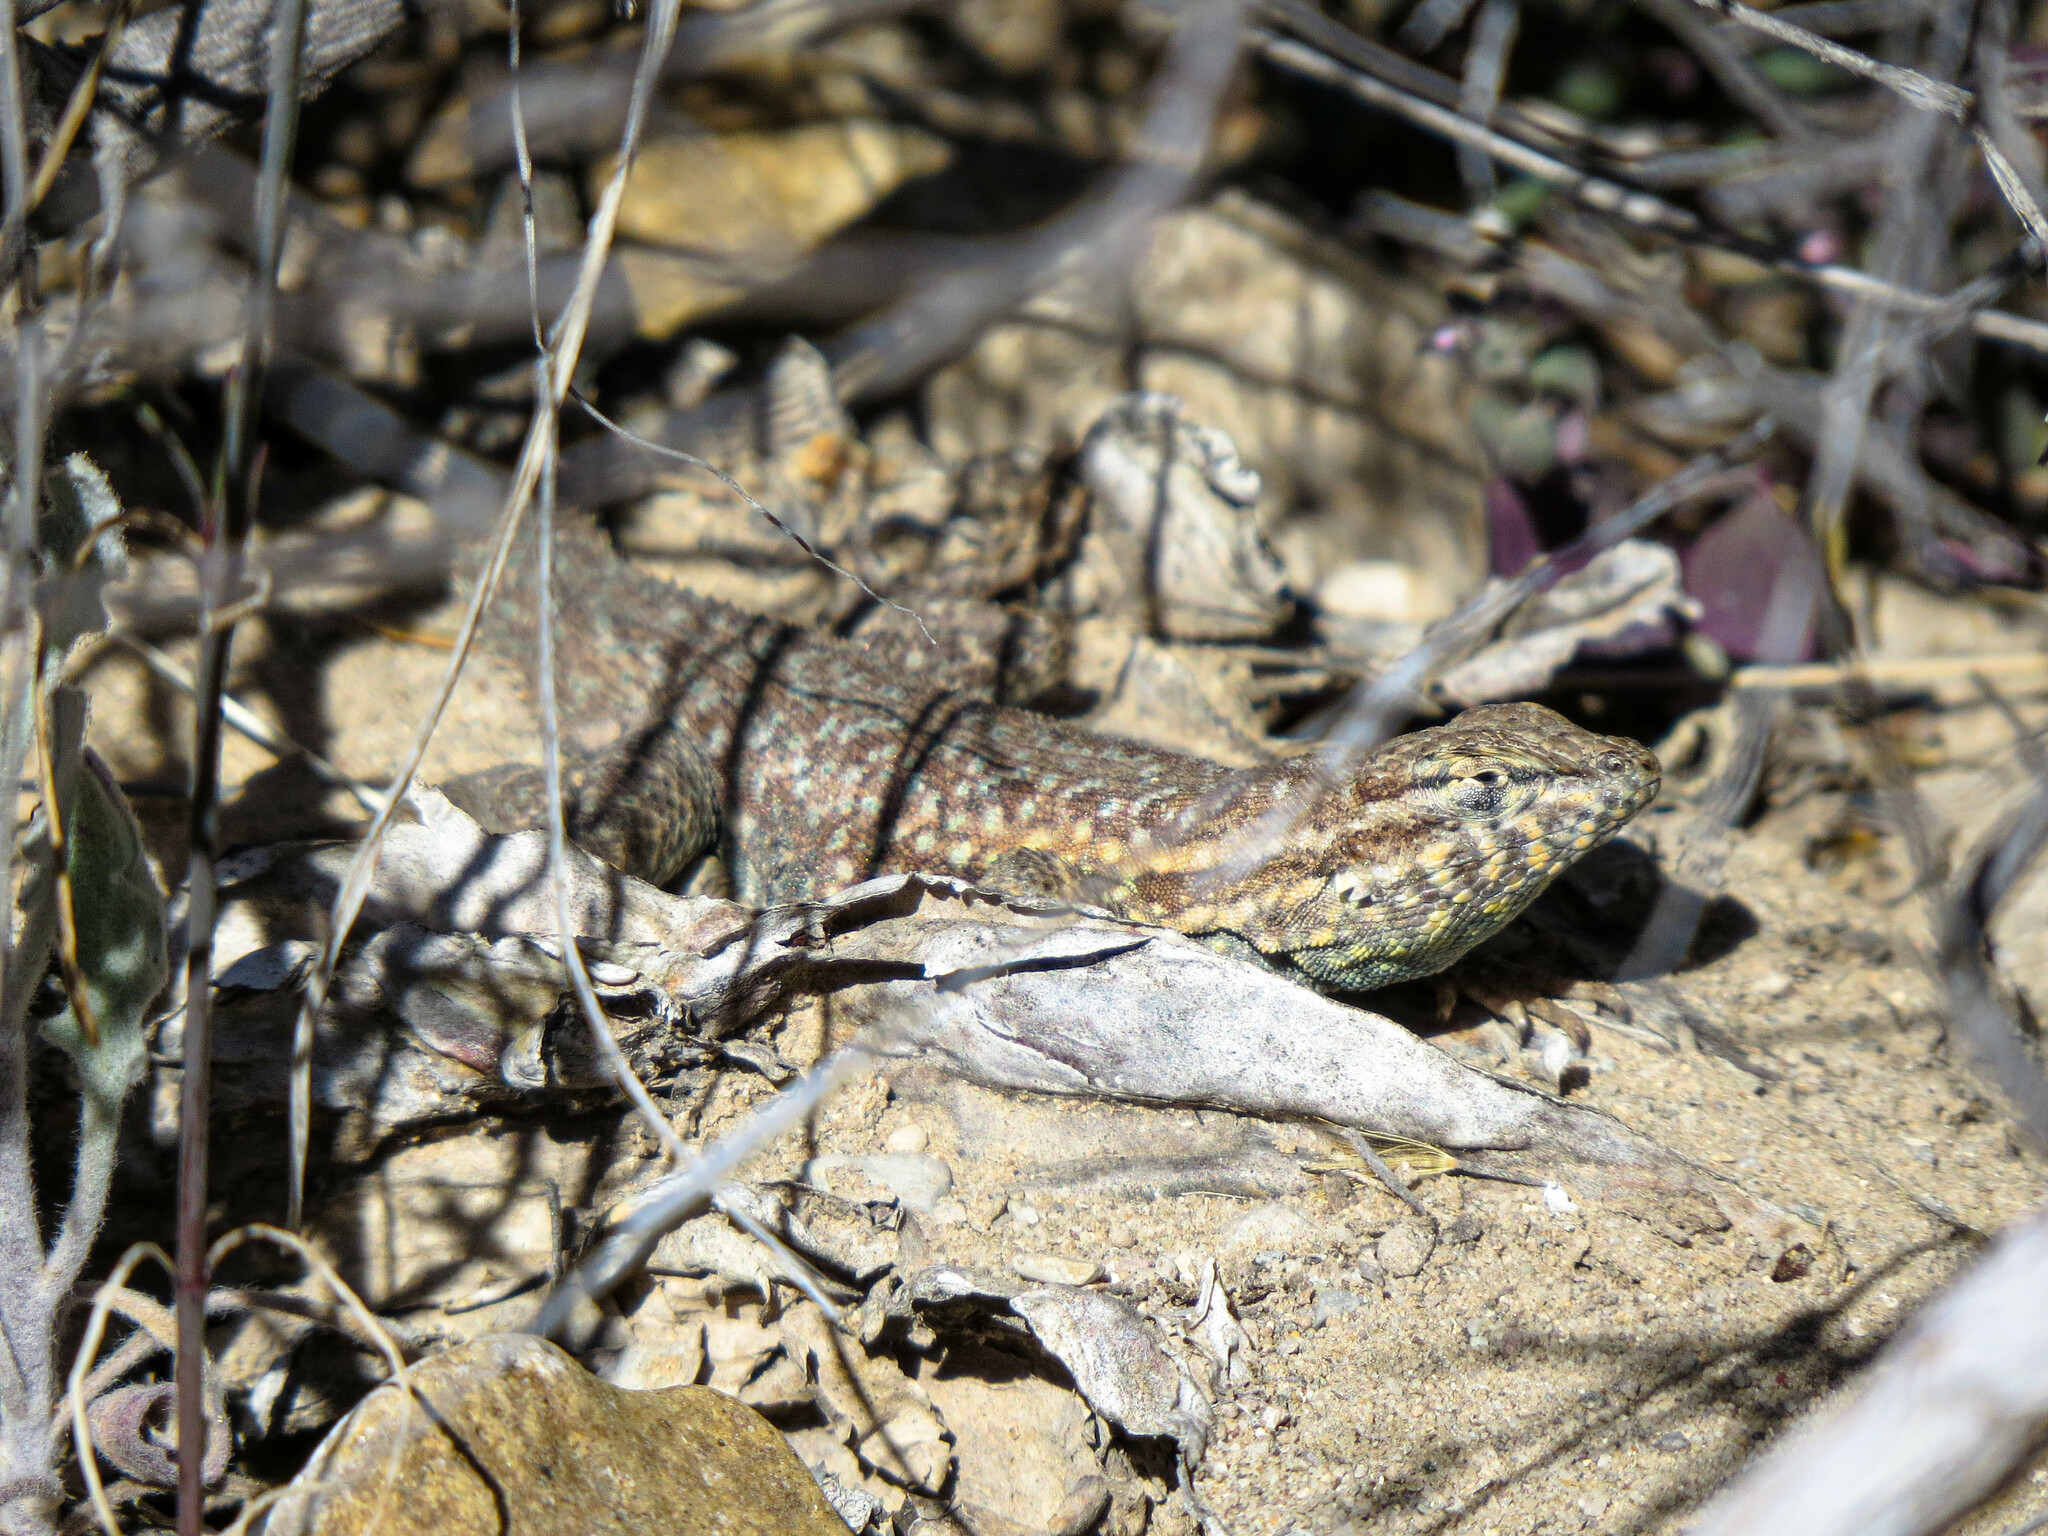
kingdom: Animalia
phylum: Chordata
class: Squamata
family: Phrynosomatidae
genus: Uta
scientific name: Uta stansburiana
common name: Side-blotched lizard
